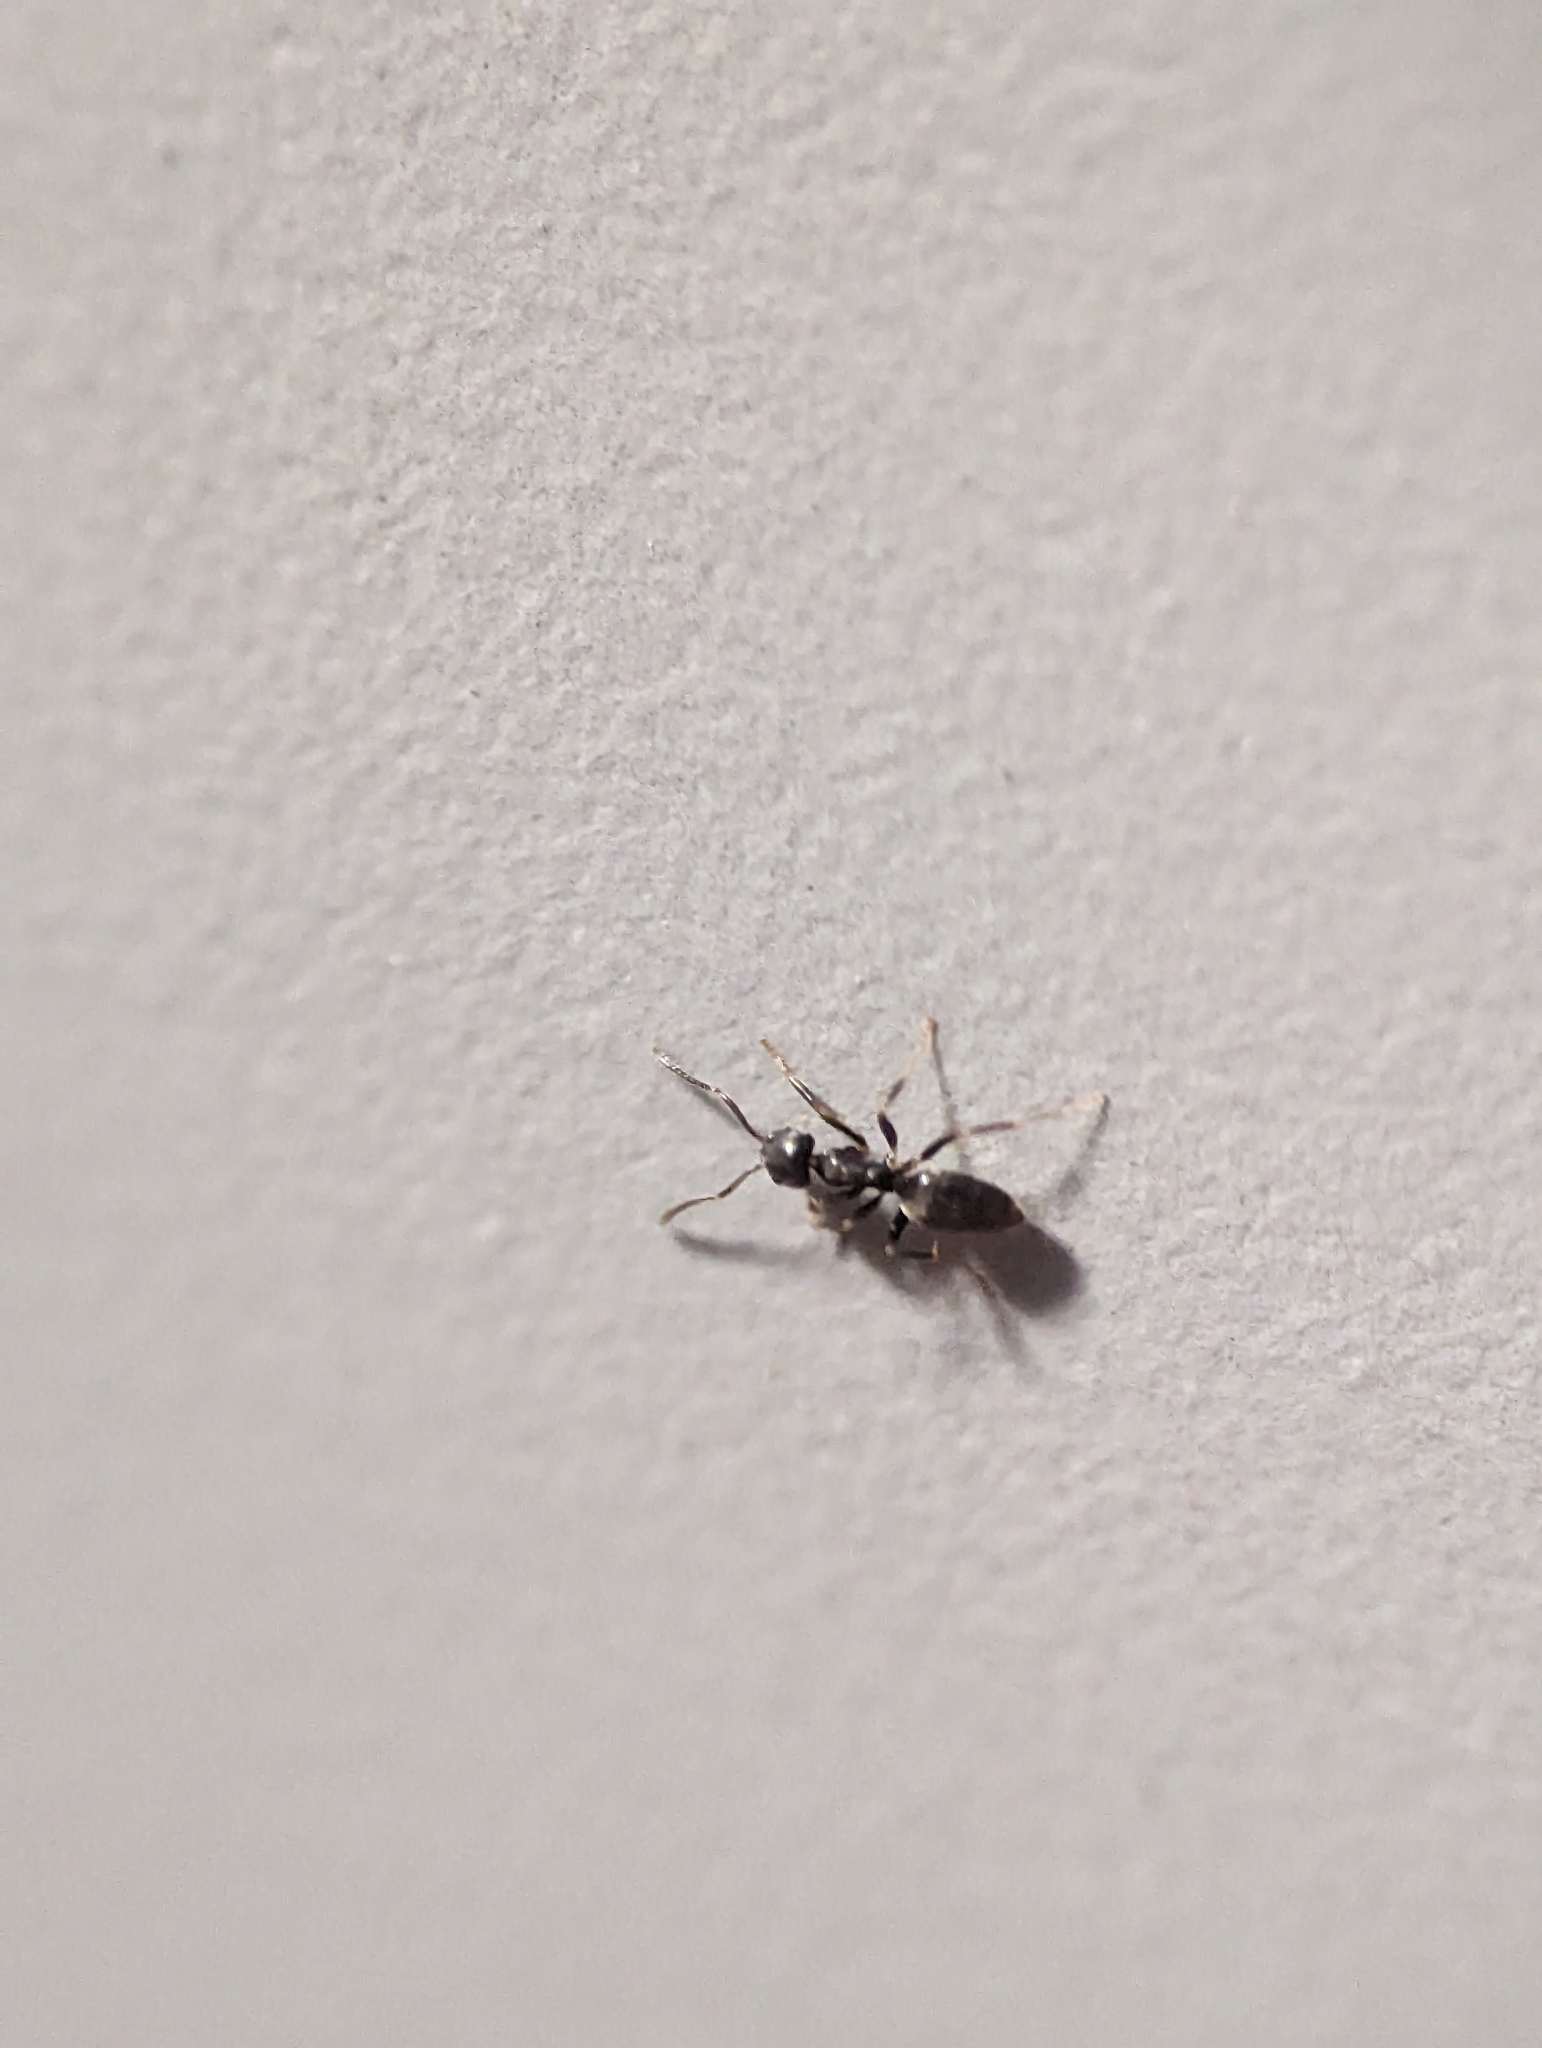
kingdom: Animalia
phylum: Arthropoda
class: Insecta
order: Hymenoptera
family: Formicidae
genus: Tapinoma
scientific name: Tapinoma sessile
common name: Odorous house ant
